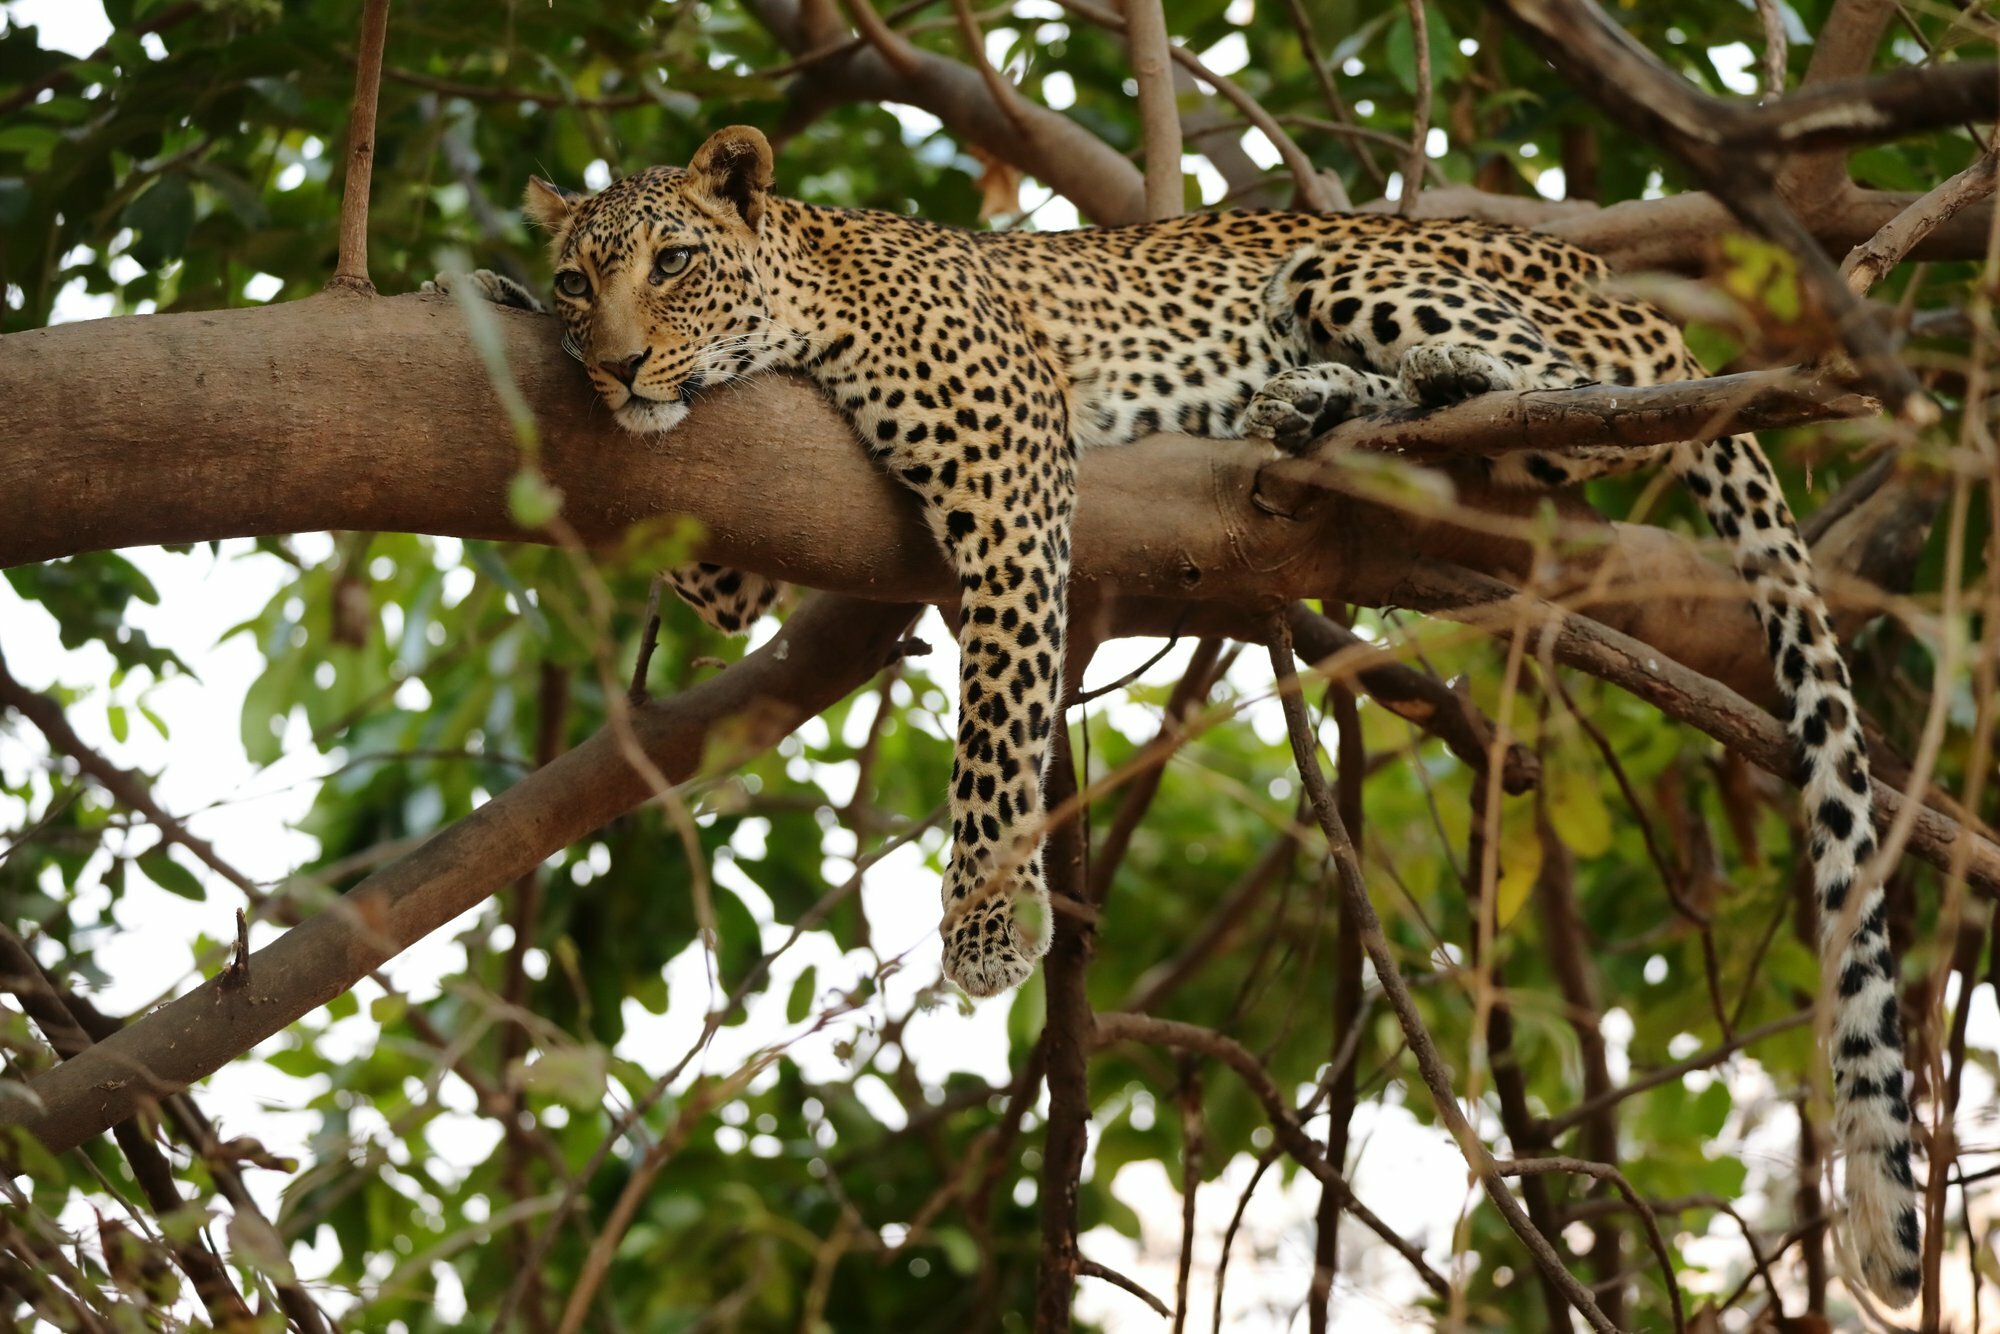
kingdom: Animalia
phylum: Chordata
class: Mammalia
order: Carnivora
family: Felidae
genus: Panthera
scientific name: Panthera pardus
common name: Leopard
